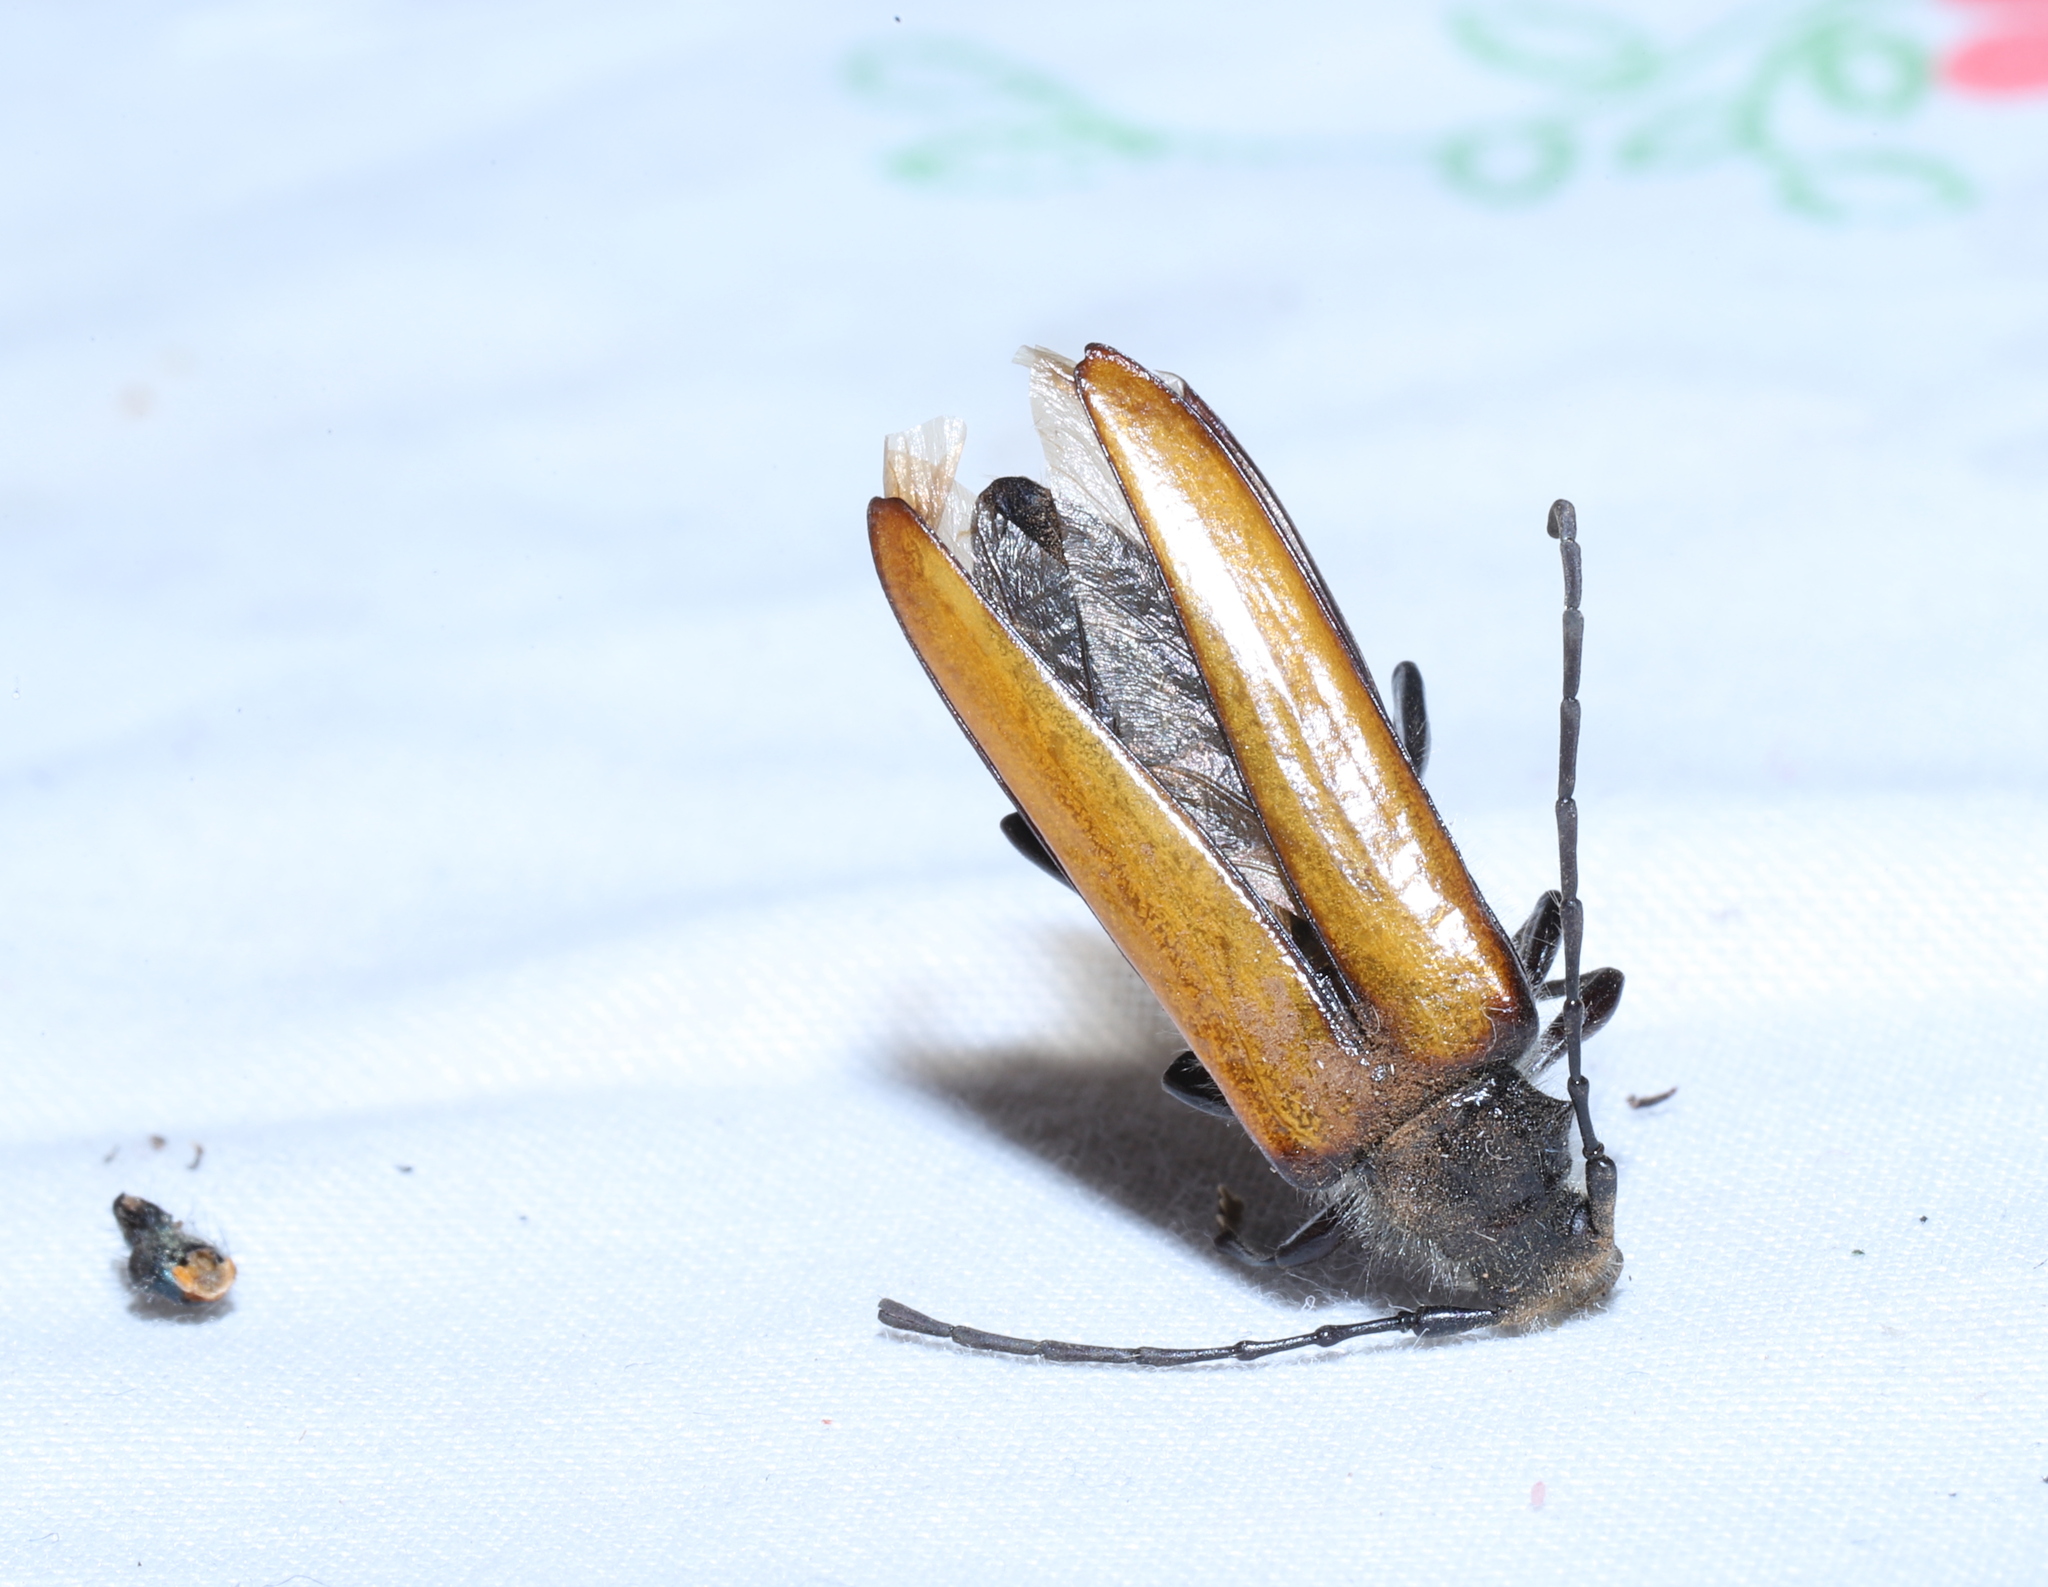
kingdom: Animalia
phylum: Arthropoda
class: Insecta
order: Coleoptera
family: Cerambycidae
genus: Sybilla
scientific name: Sybilla livida
